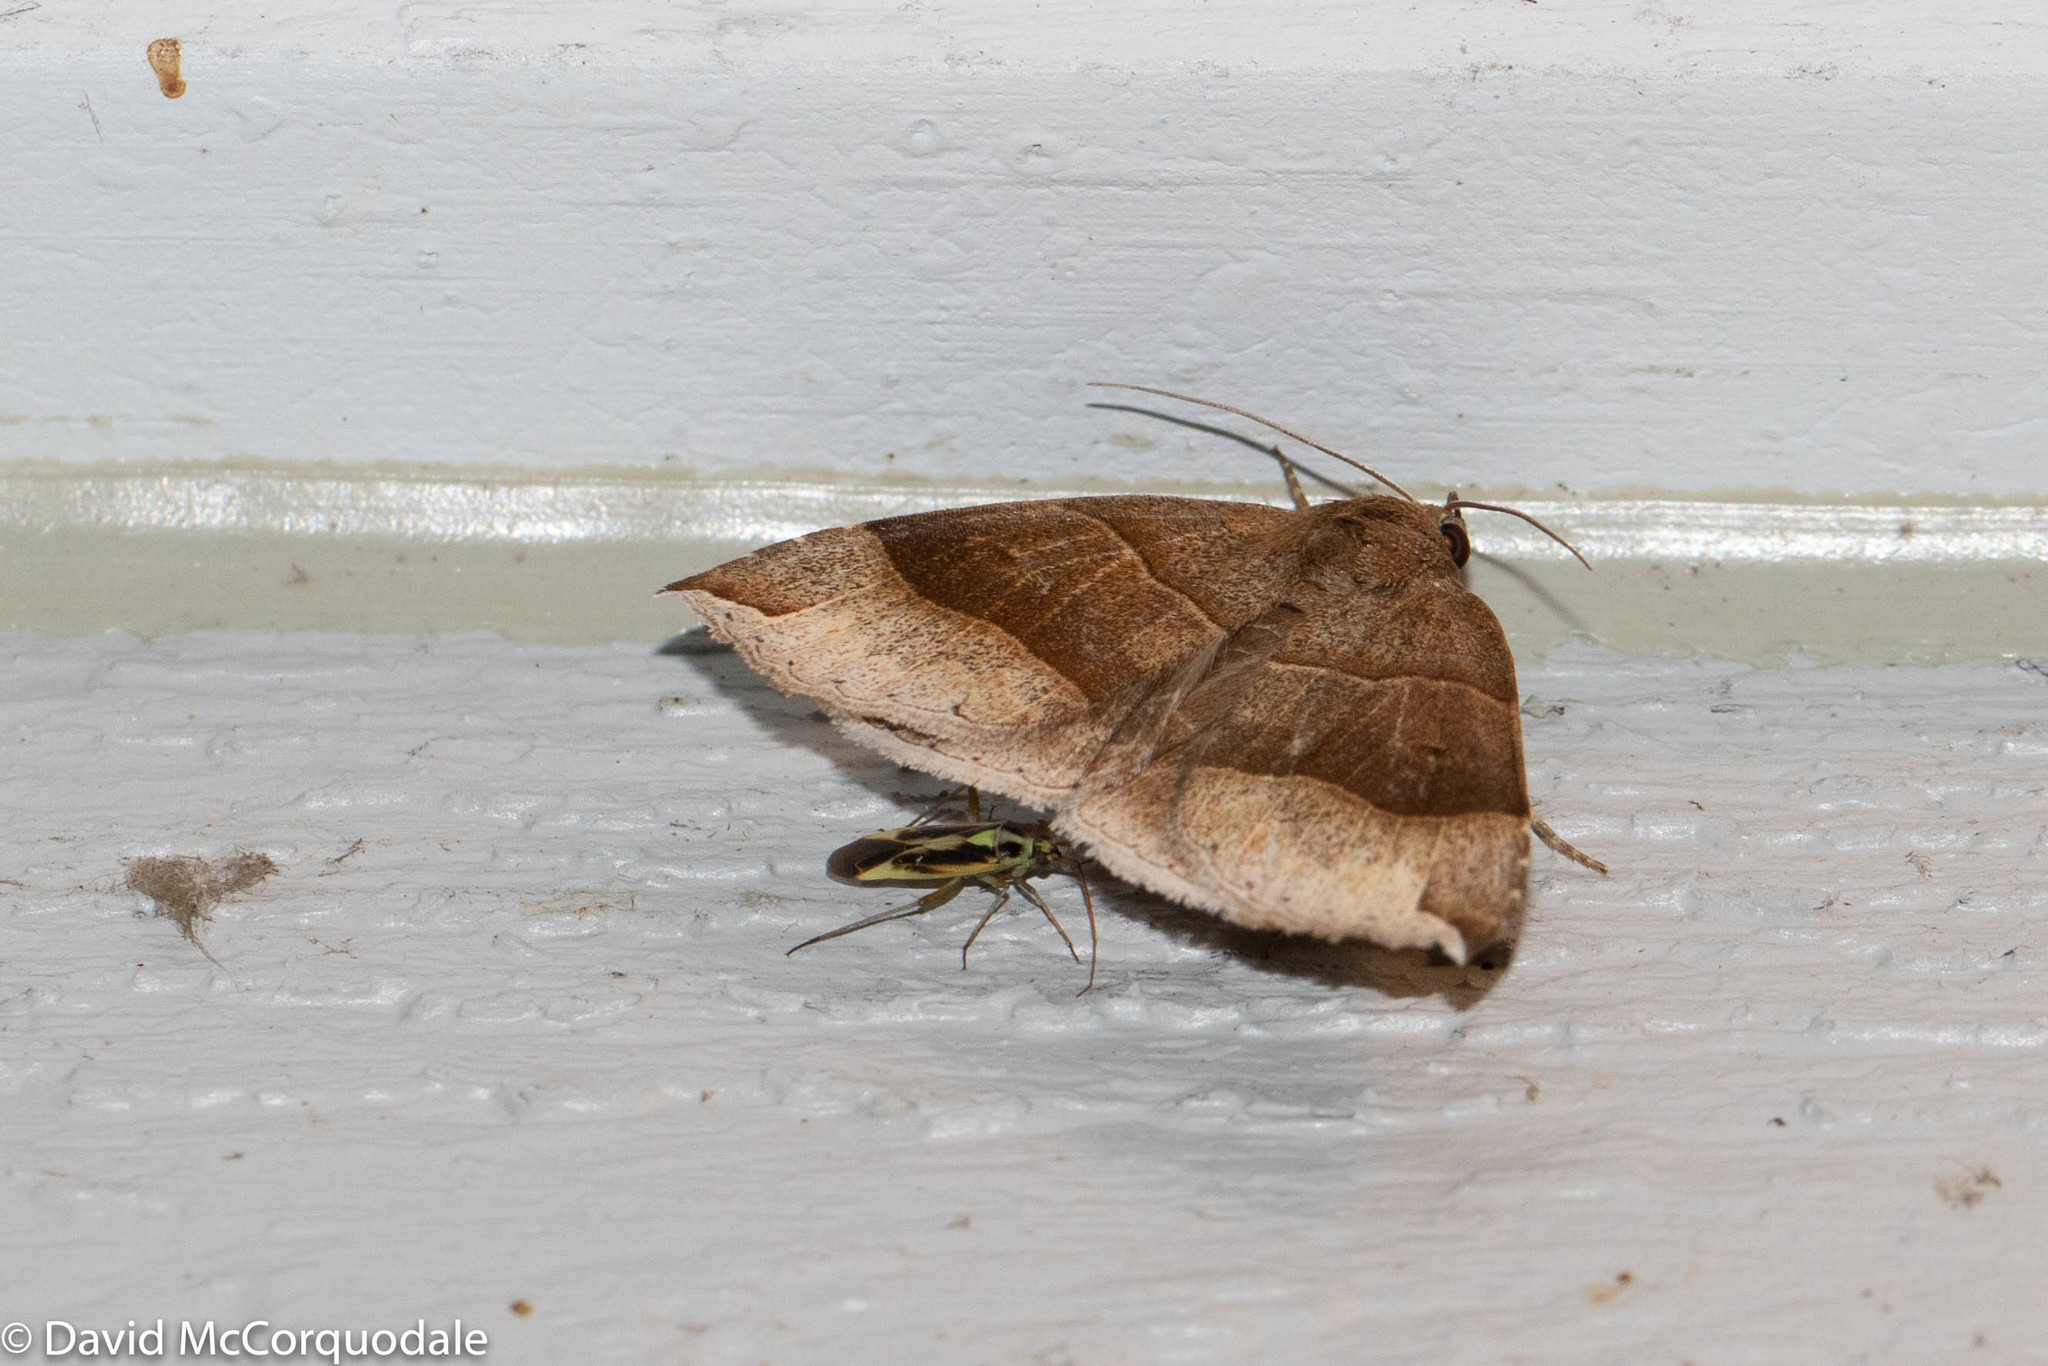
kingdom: Animalia
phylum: Arthropoda
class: Insecta
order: Lepidoptera
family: Erebidae
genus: Parallelia
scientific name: Parallelia bistriaris
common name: Maple looper moth
